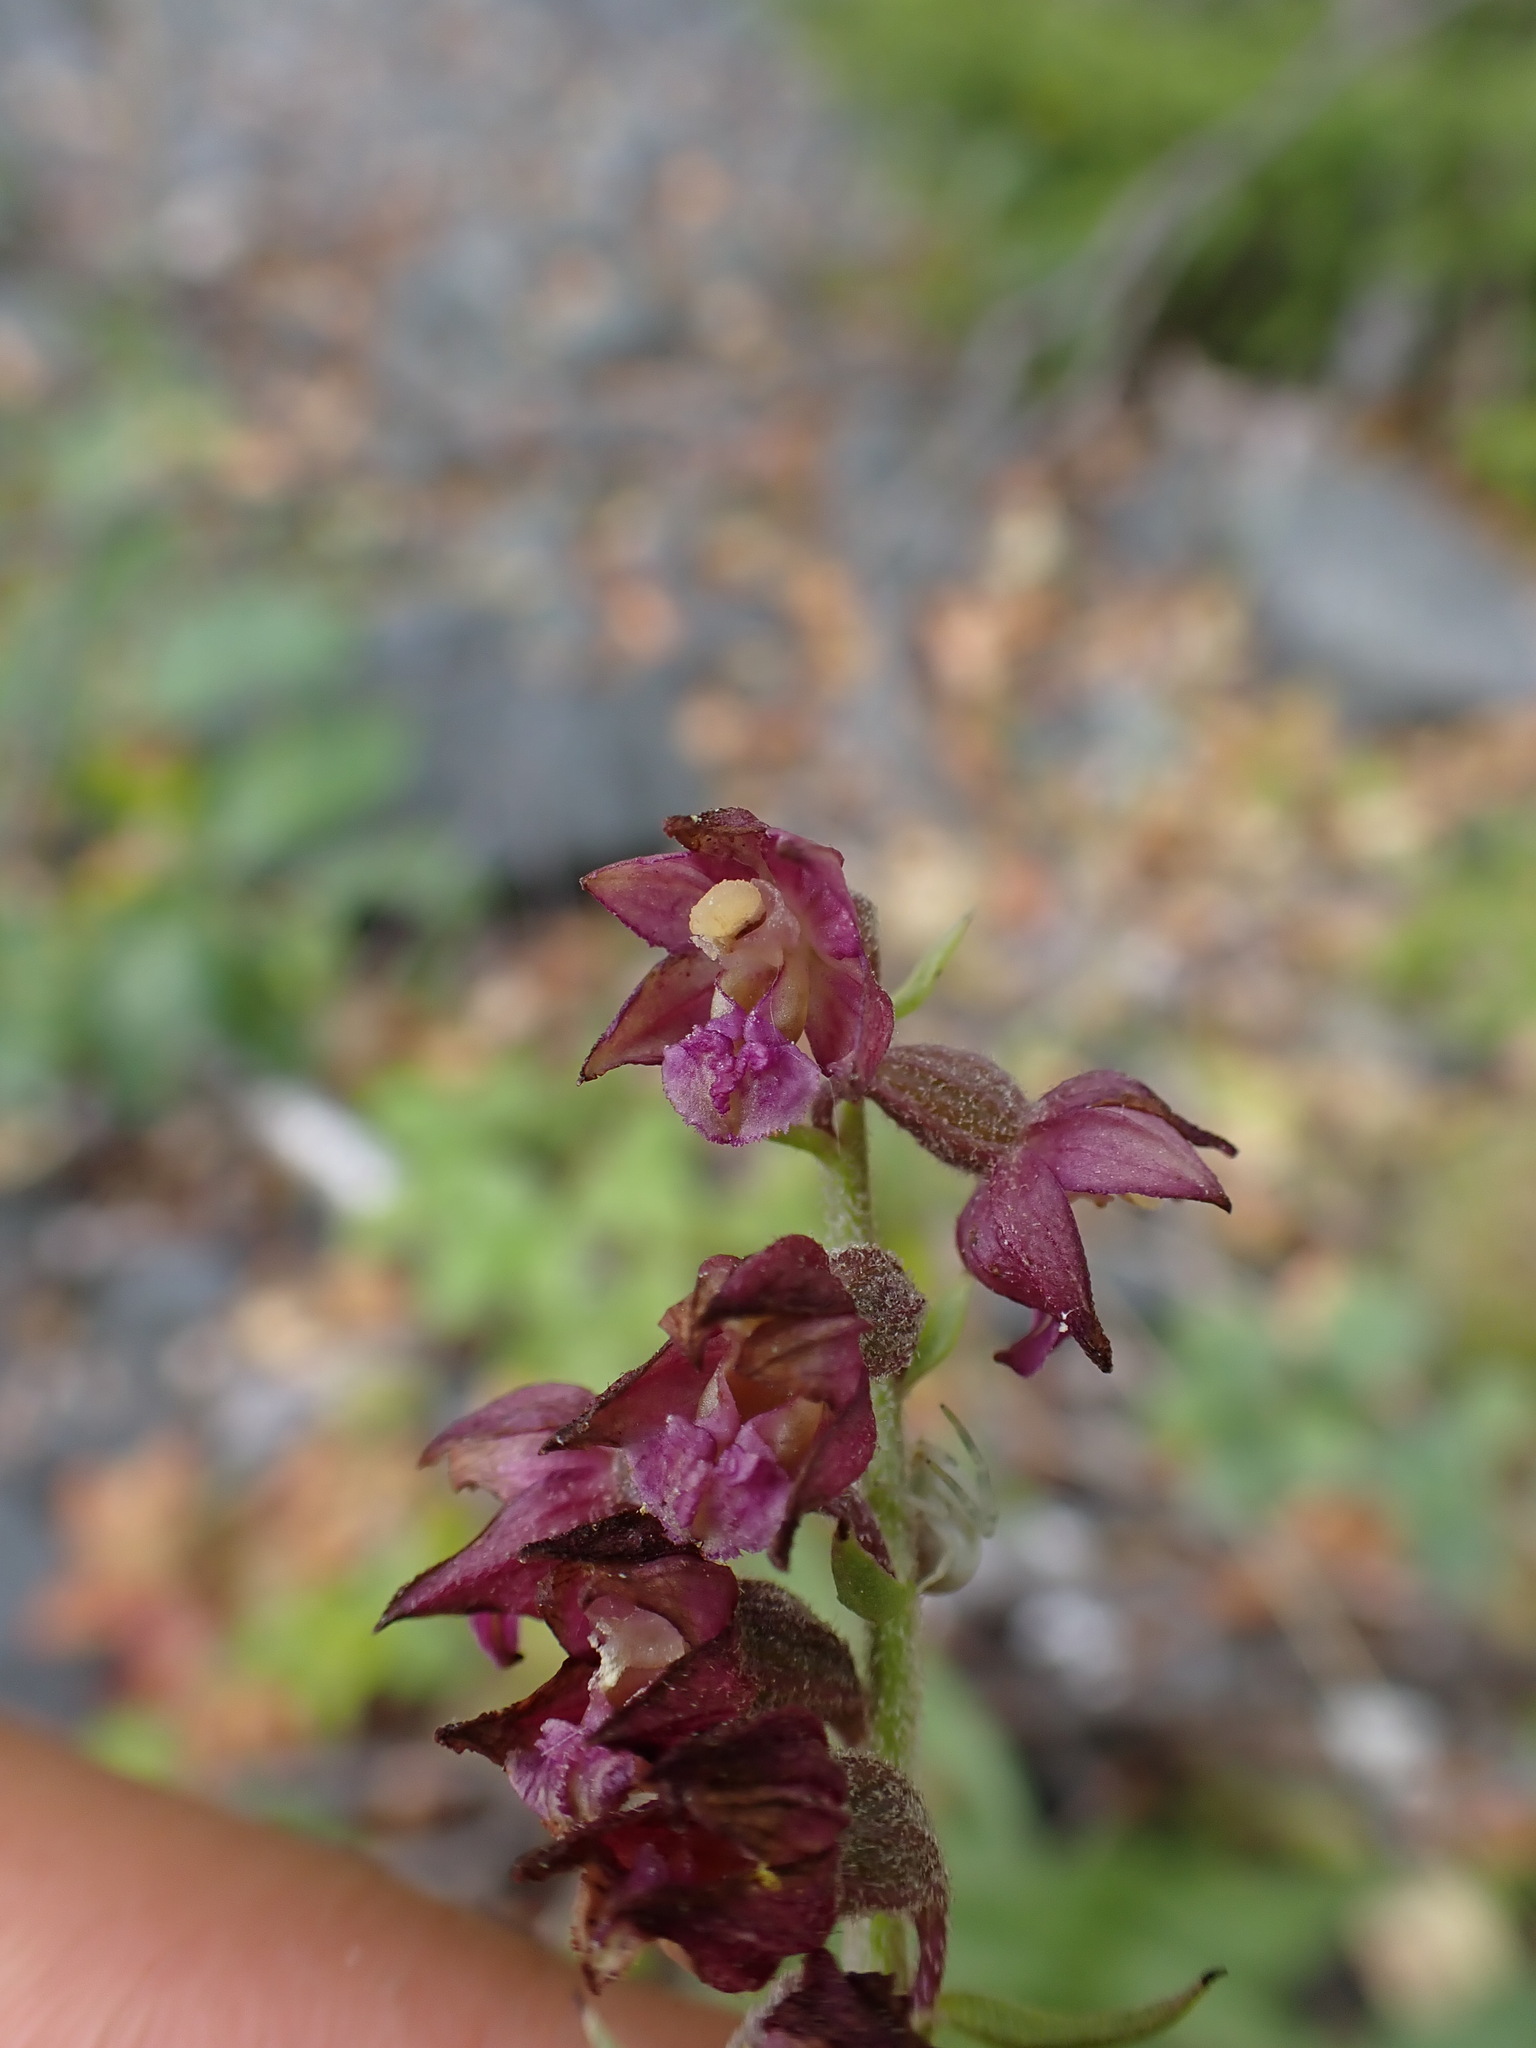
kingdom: Plantae
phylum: Tracheophyta
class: Liliopsida
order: Asparagales
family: Orchidaceae
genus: Epipactis
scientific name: Epipactis atrorubens
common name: Dark-red helleborine
